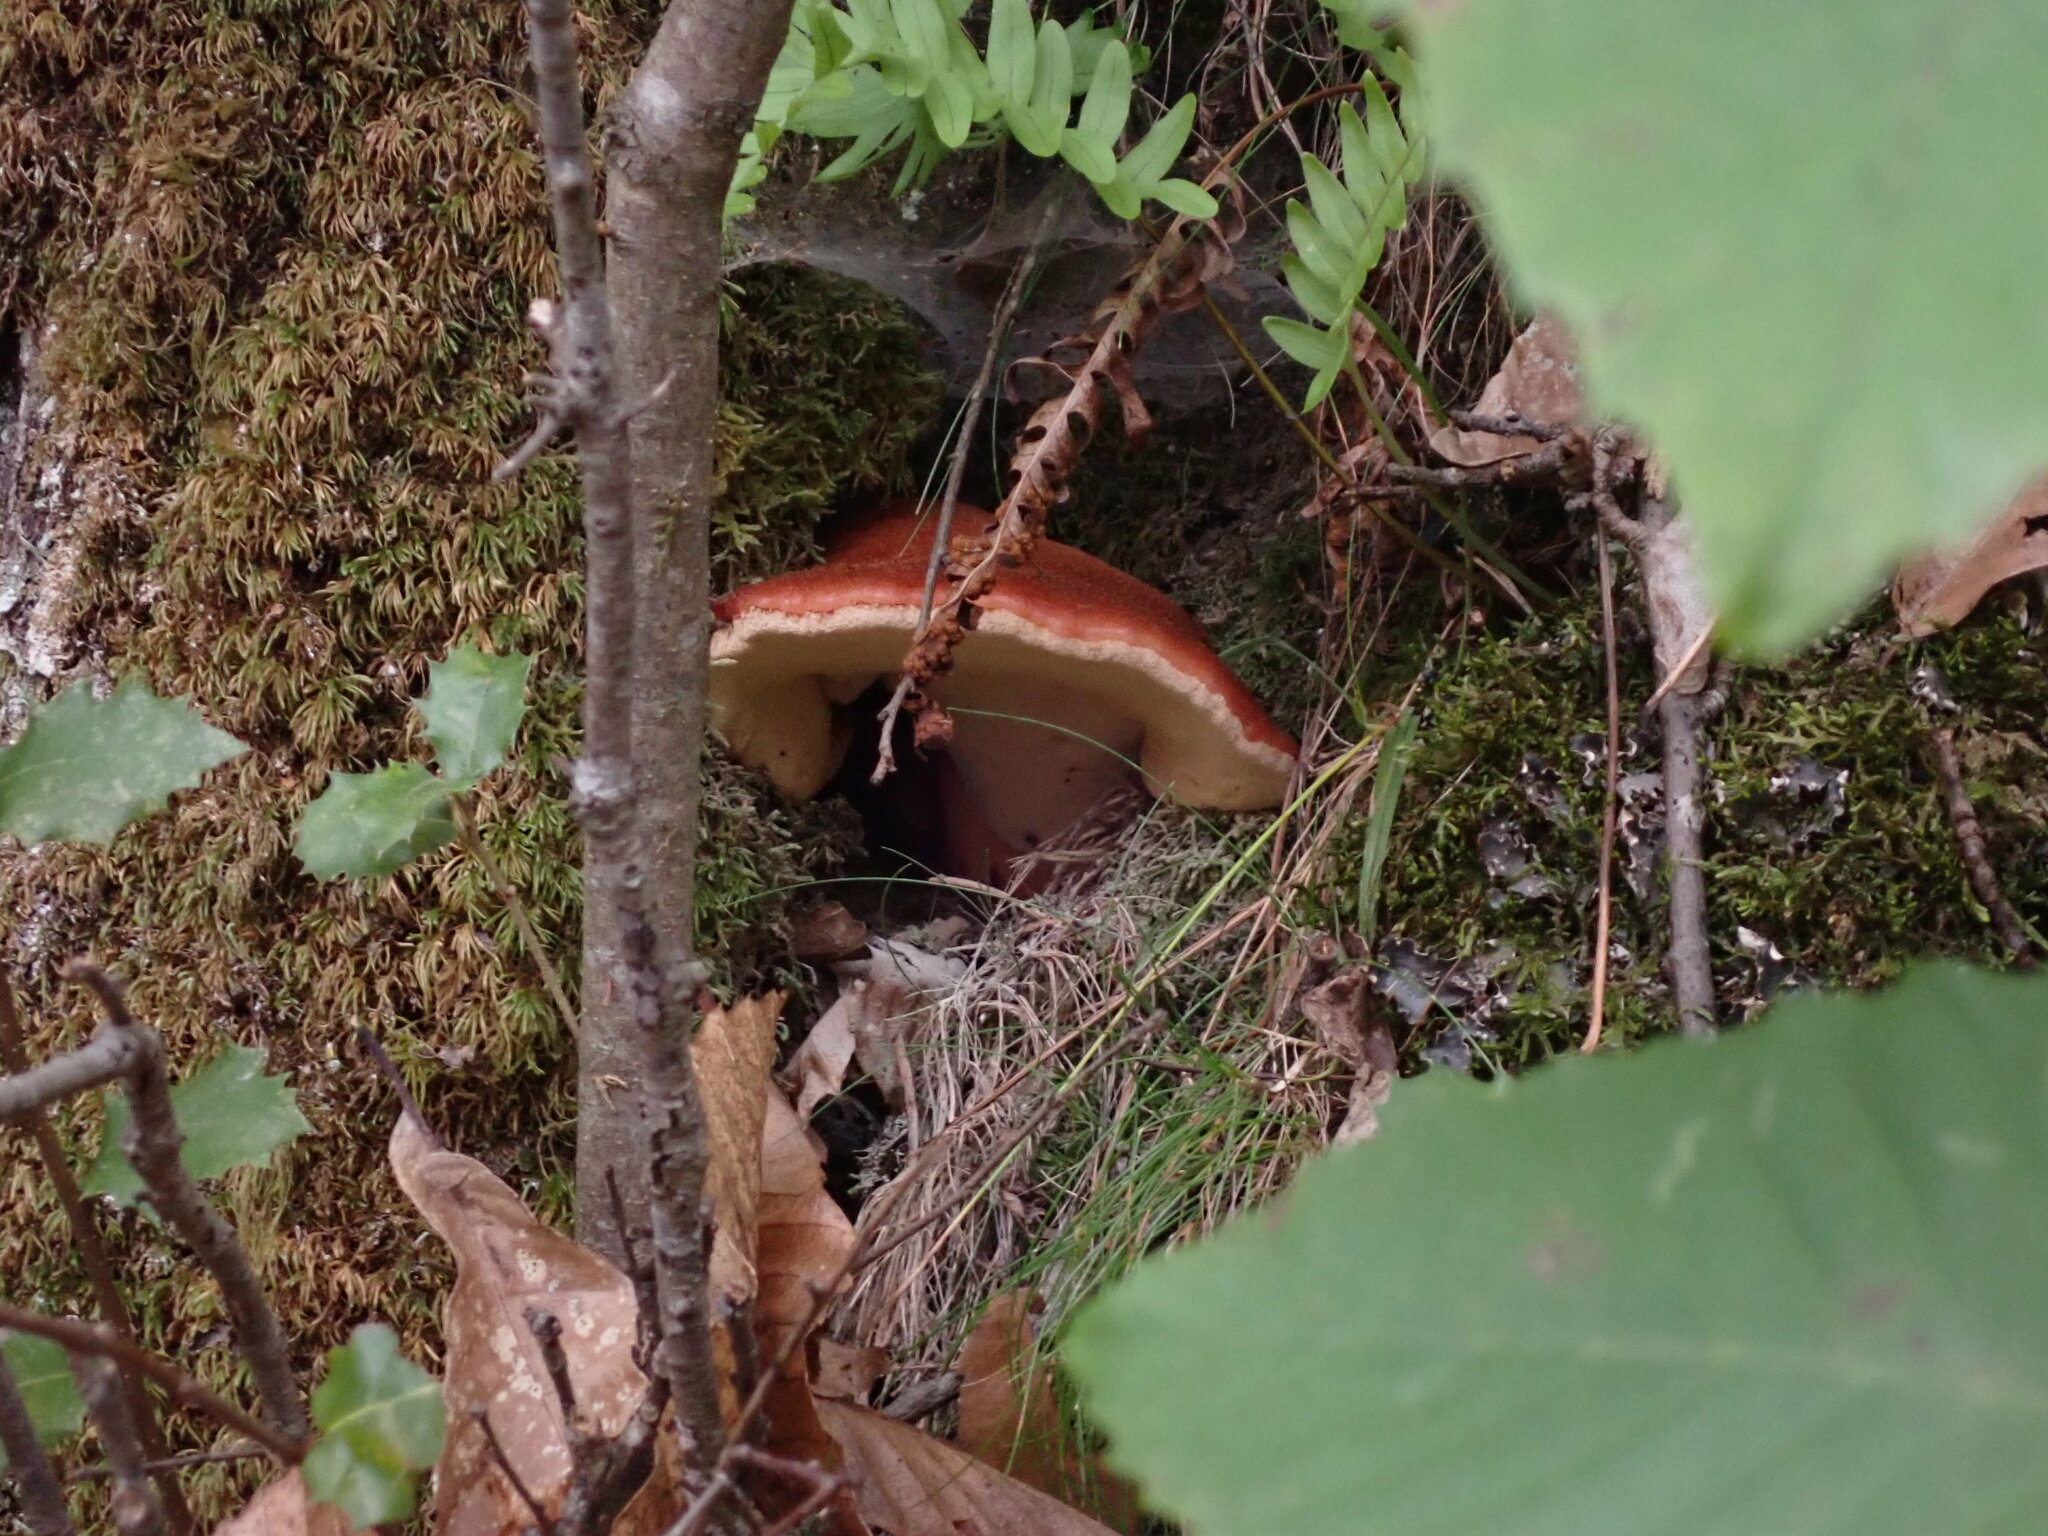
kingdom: Fungi
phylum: Basidiomycota
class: Agaricomycetes
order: Agaricales
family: Fistulinaceae
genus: Fistulina
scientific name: Fistulina hepatica
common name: Beef-steak fungus
